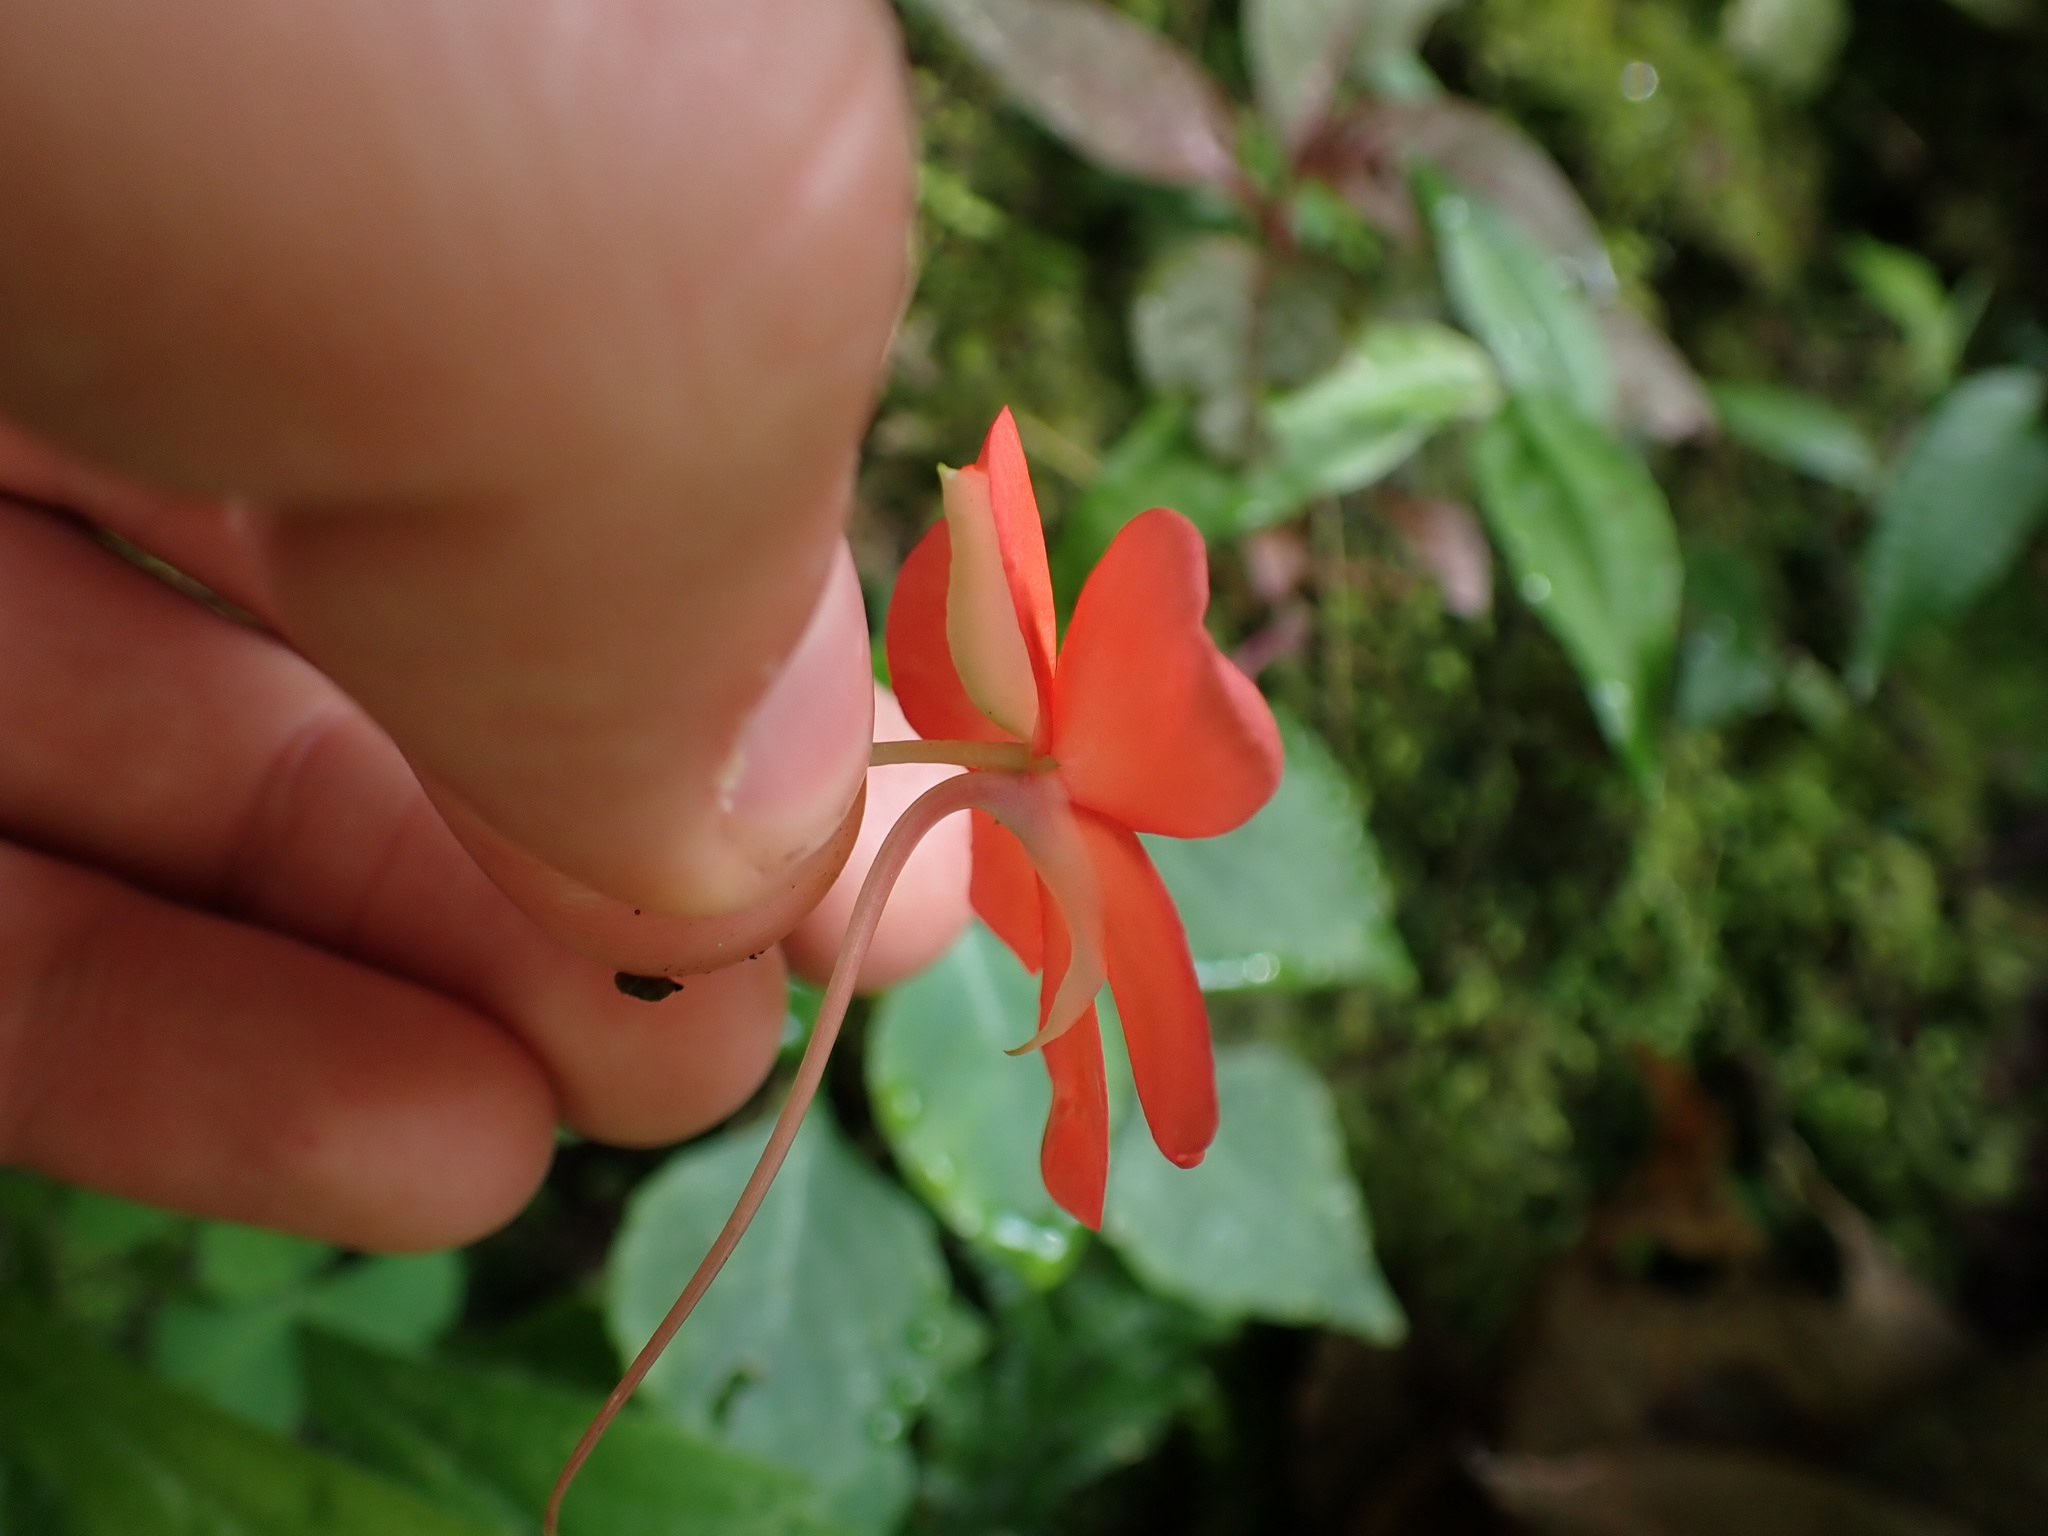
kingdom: Plantae
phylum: Tracheophyta
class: Magnoliopsida
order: Ericales
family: Balsaminaceae
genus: Impatiens
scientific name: Impatiens walleriana
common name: Buzzy lizzy
